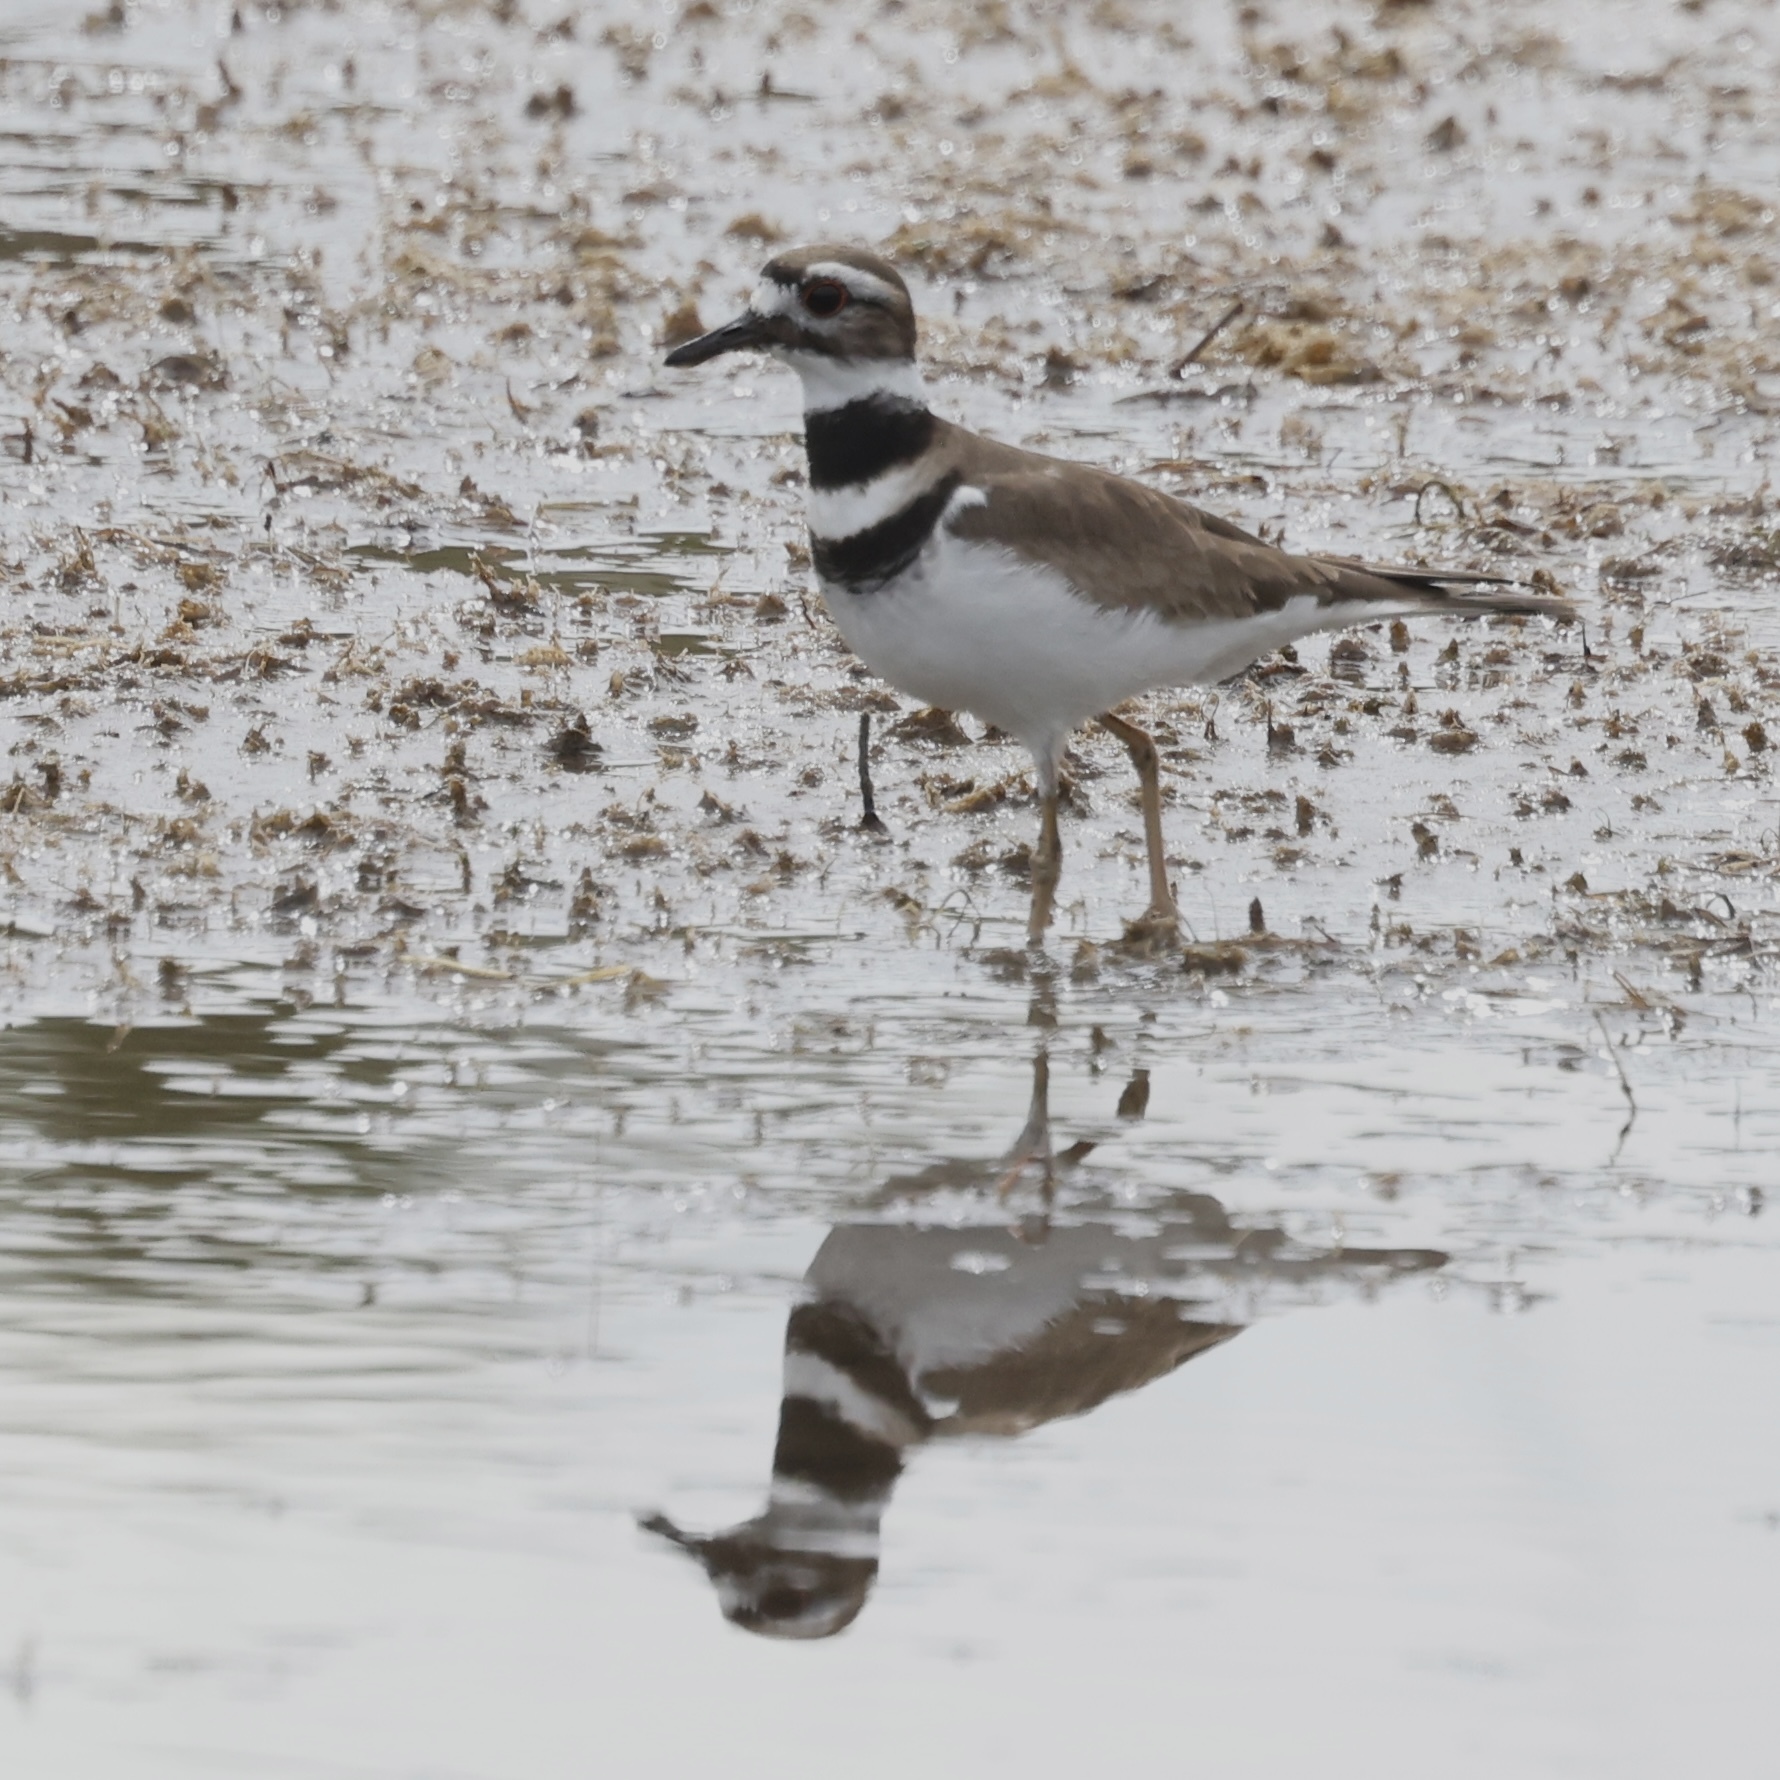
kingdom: Animalia
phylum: Chordata
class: Aves
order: Charadriiformes
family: Charadriidae
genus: Charadrius
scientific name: Charadrius vociferus
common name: Killdeer
